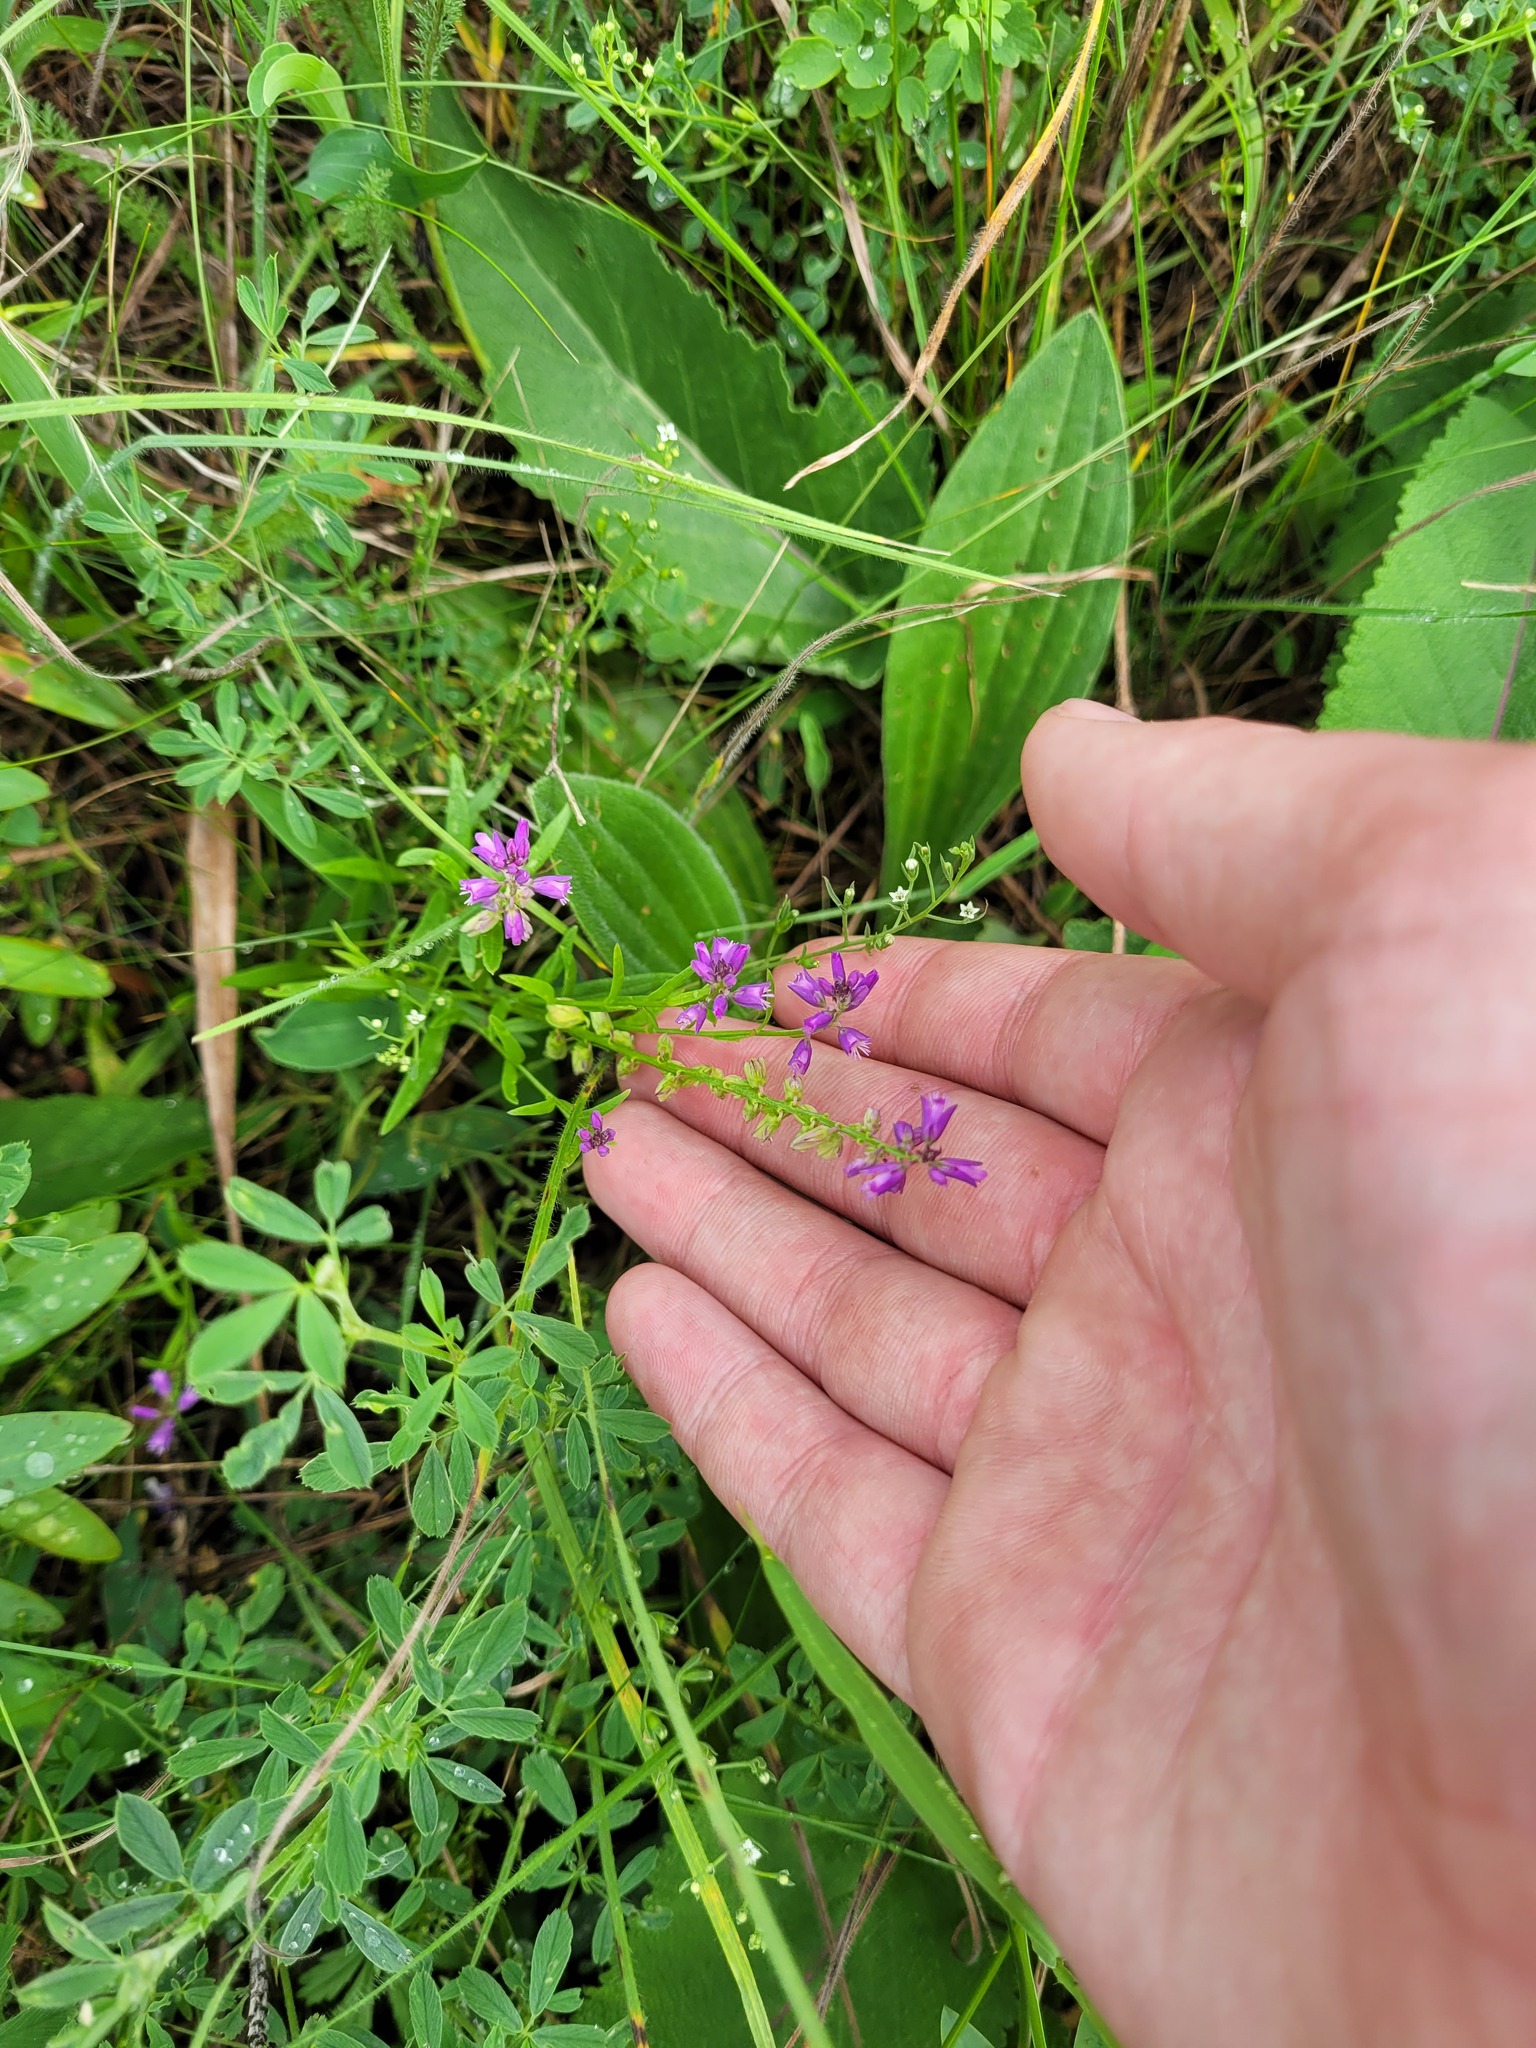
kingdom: Plantae
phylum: Tracheophyta
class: Magnoliopsida
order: Fabales
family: Polygalaceae
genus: Polygala
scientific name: Polygala comosa
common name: Tufted milkwort
